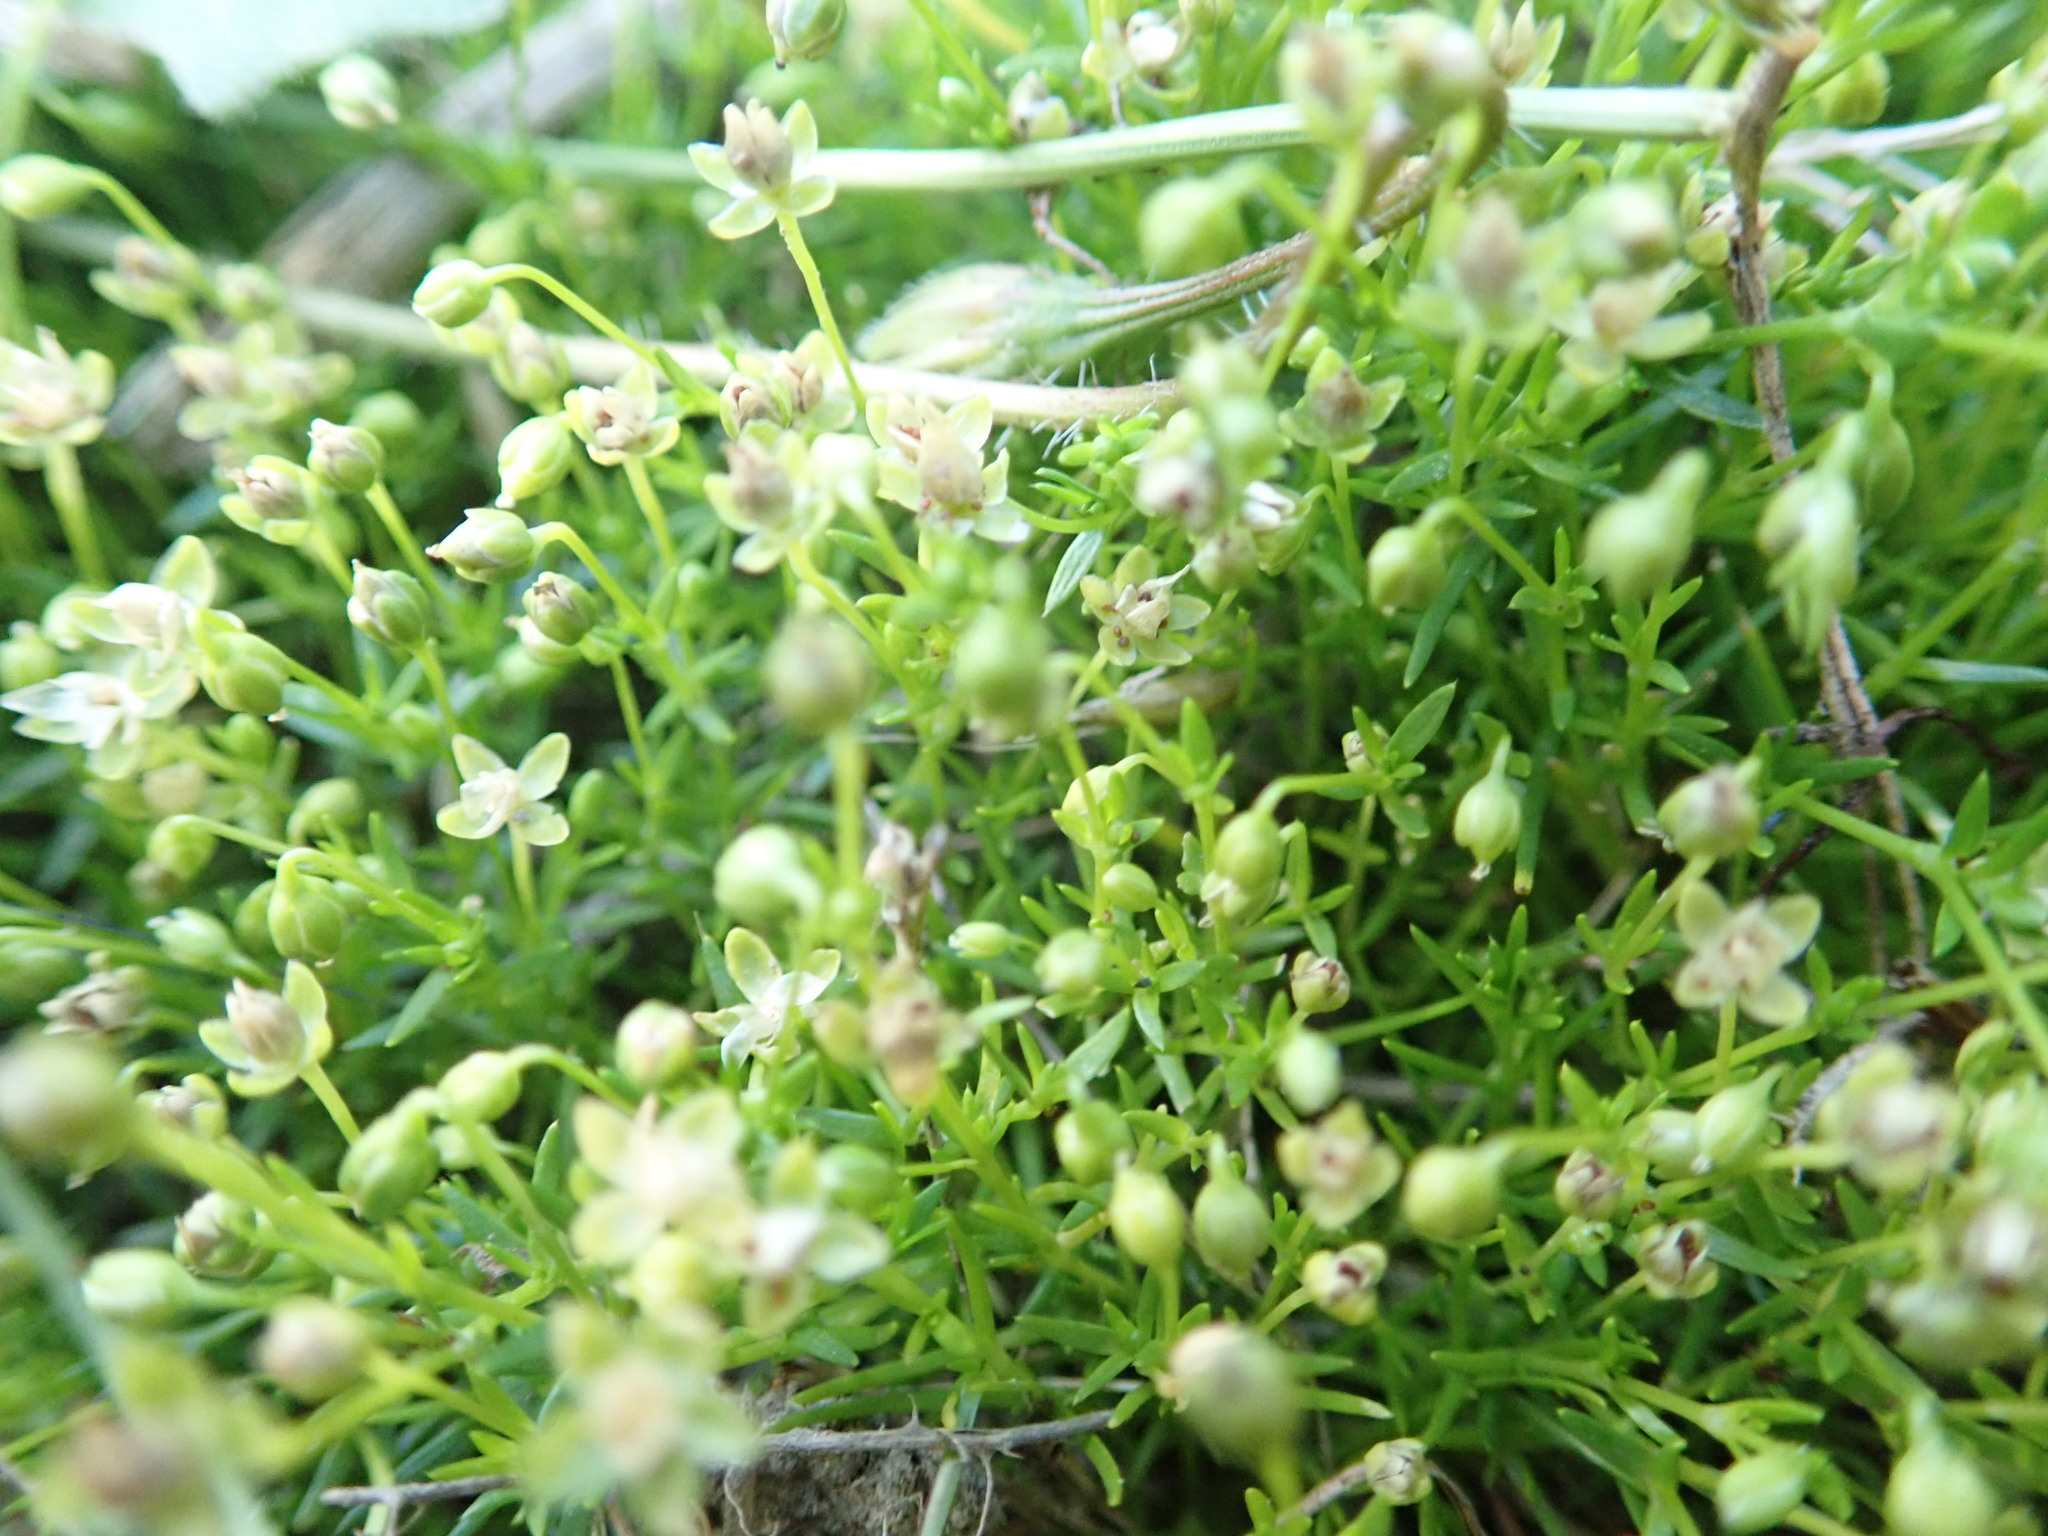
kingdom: Plantae
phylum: Tracheophyta
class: Magnoliopsida
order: Caryophyllales
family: Caryophyllaceae
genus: Sagina
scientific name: Sagina procumbens
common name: Procumbent pearlwort
